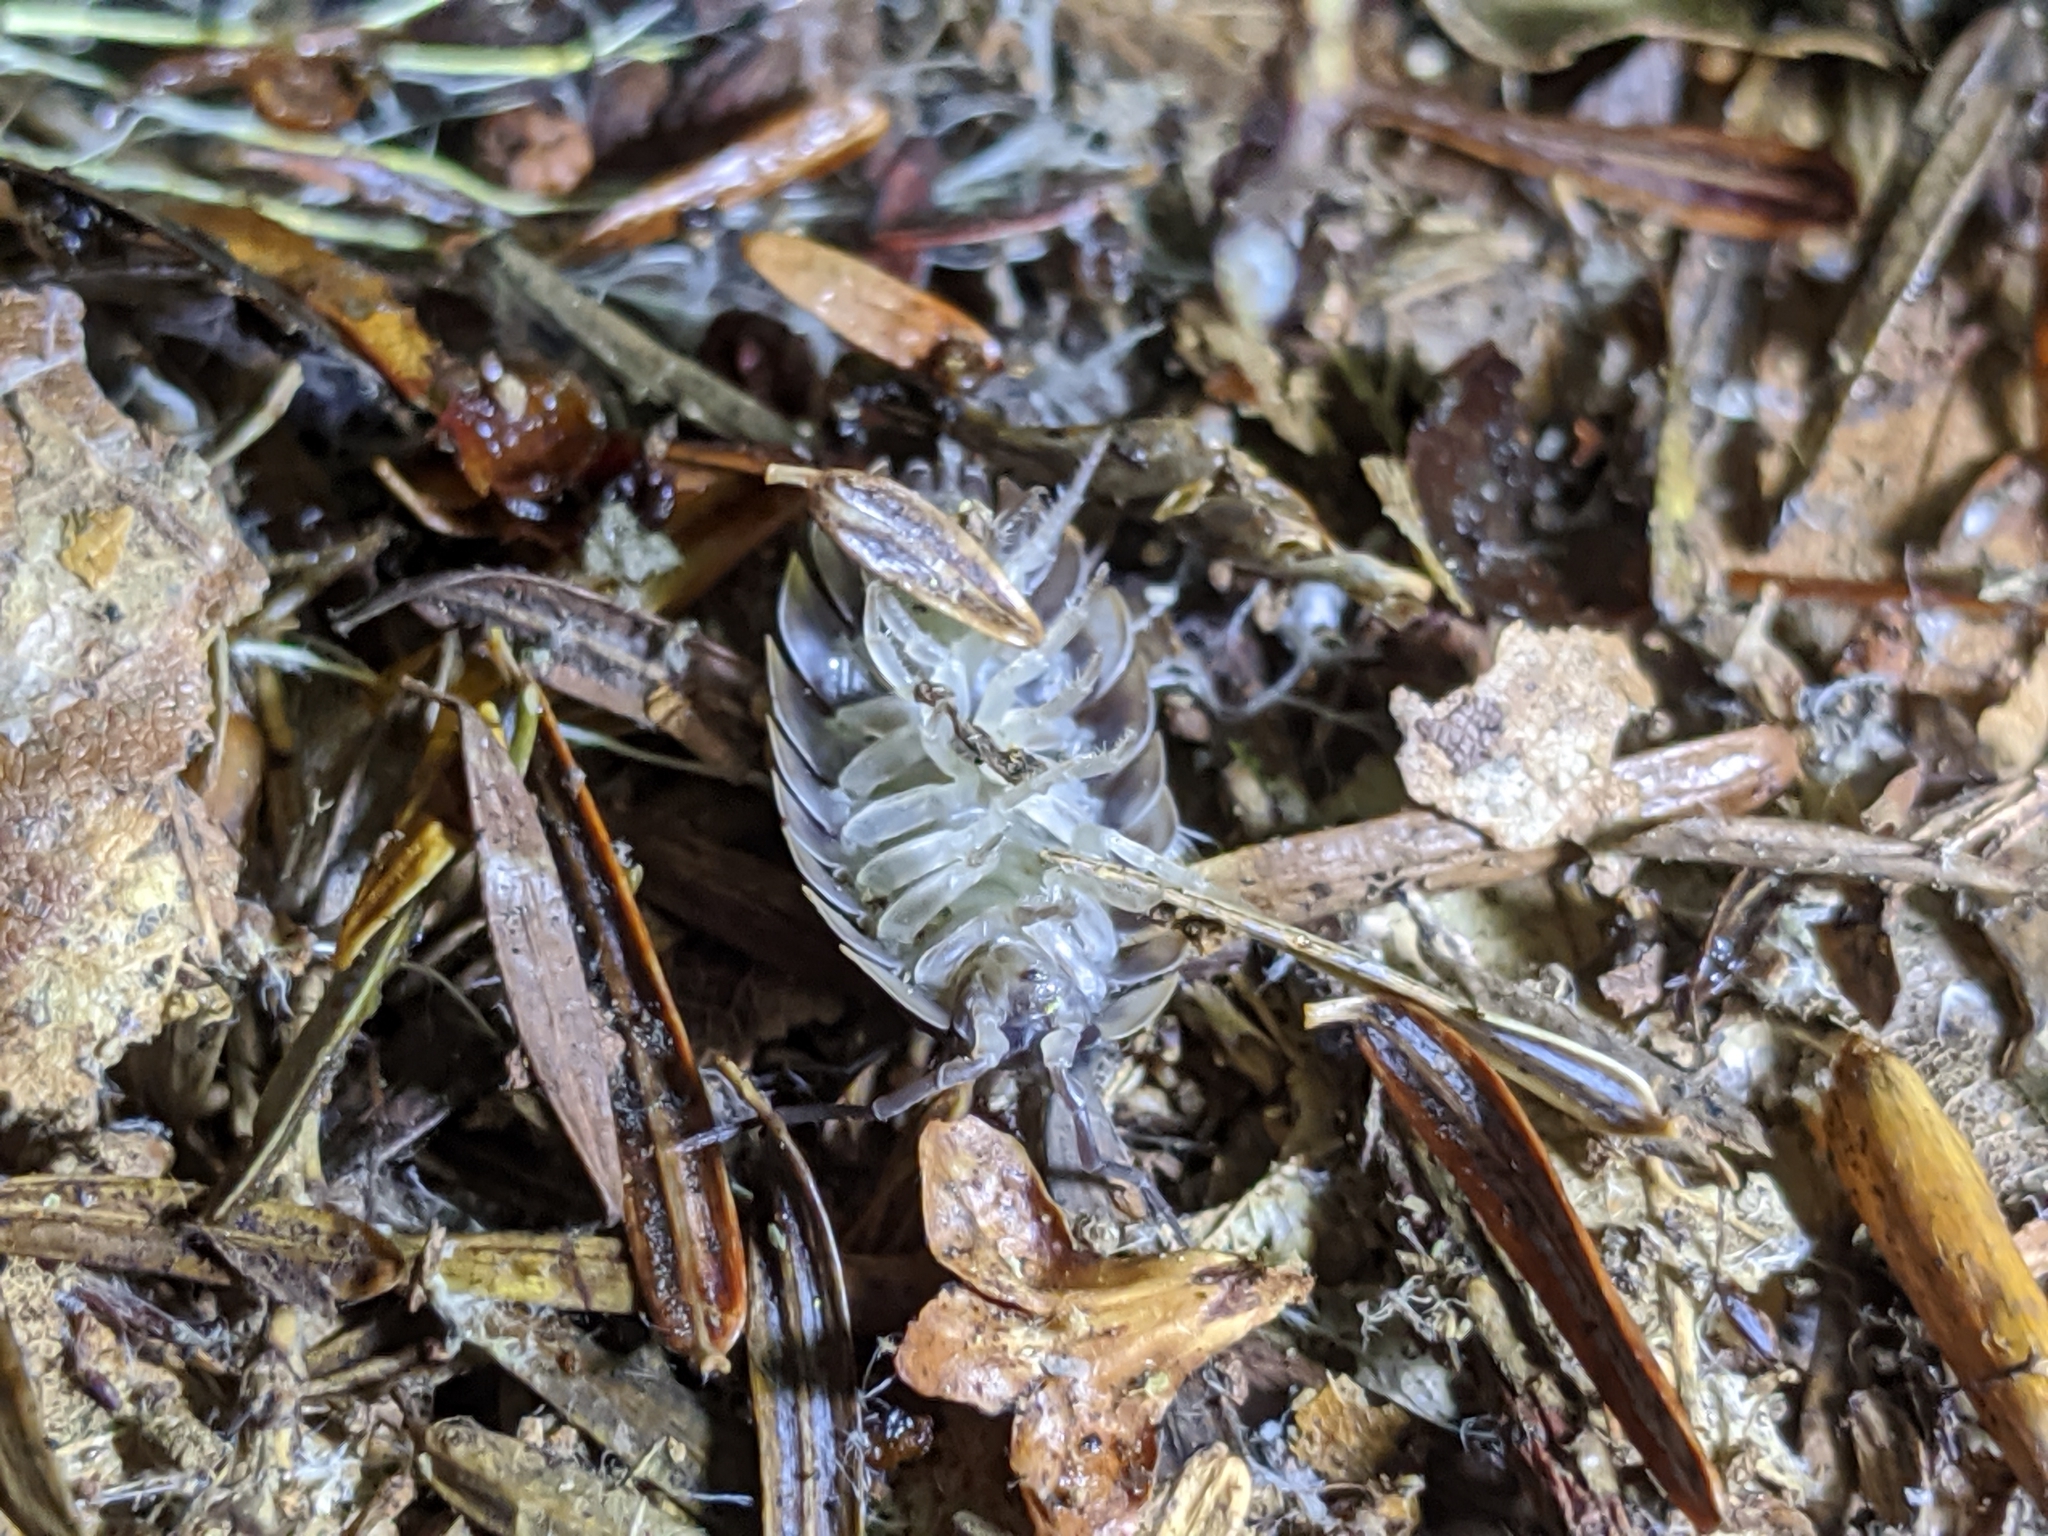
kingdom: Animalia
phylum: Arthropoda
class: Malacostraca
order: Isopoda
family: Oniscidae
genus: Oniscus
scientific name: Oniscus asellus
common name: Common shiny woodlouse
